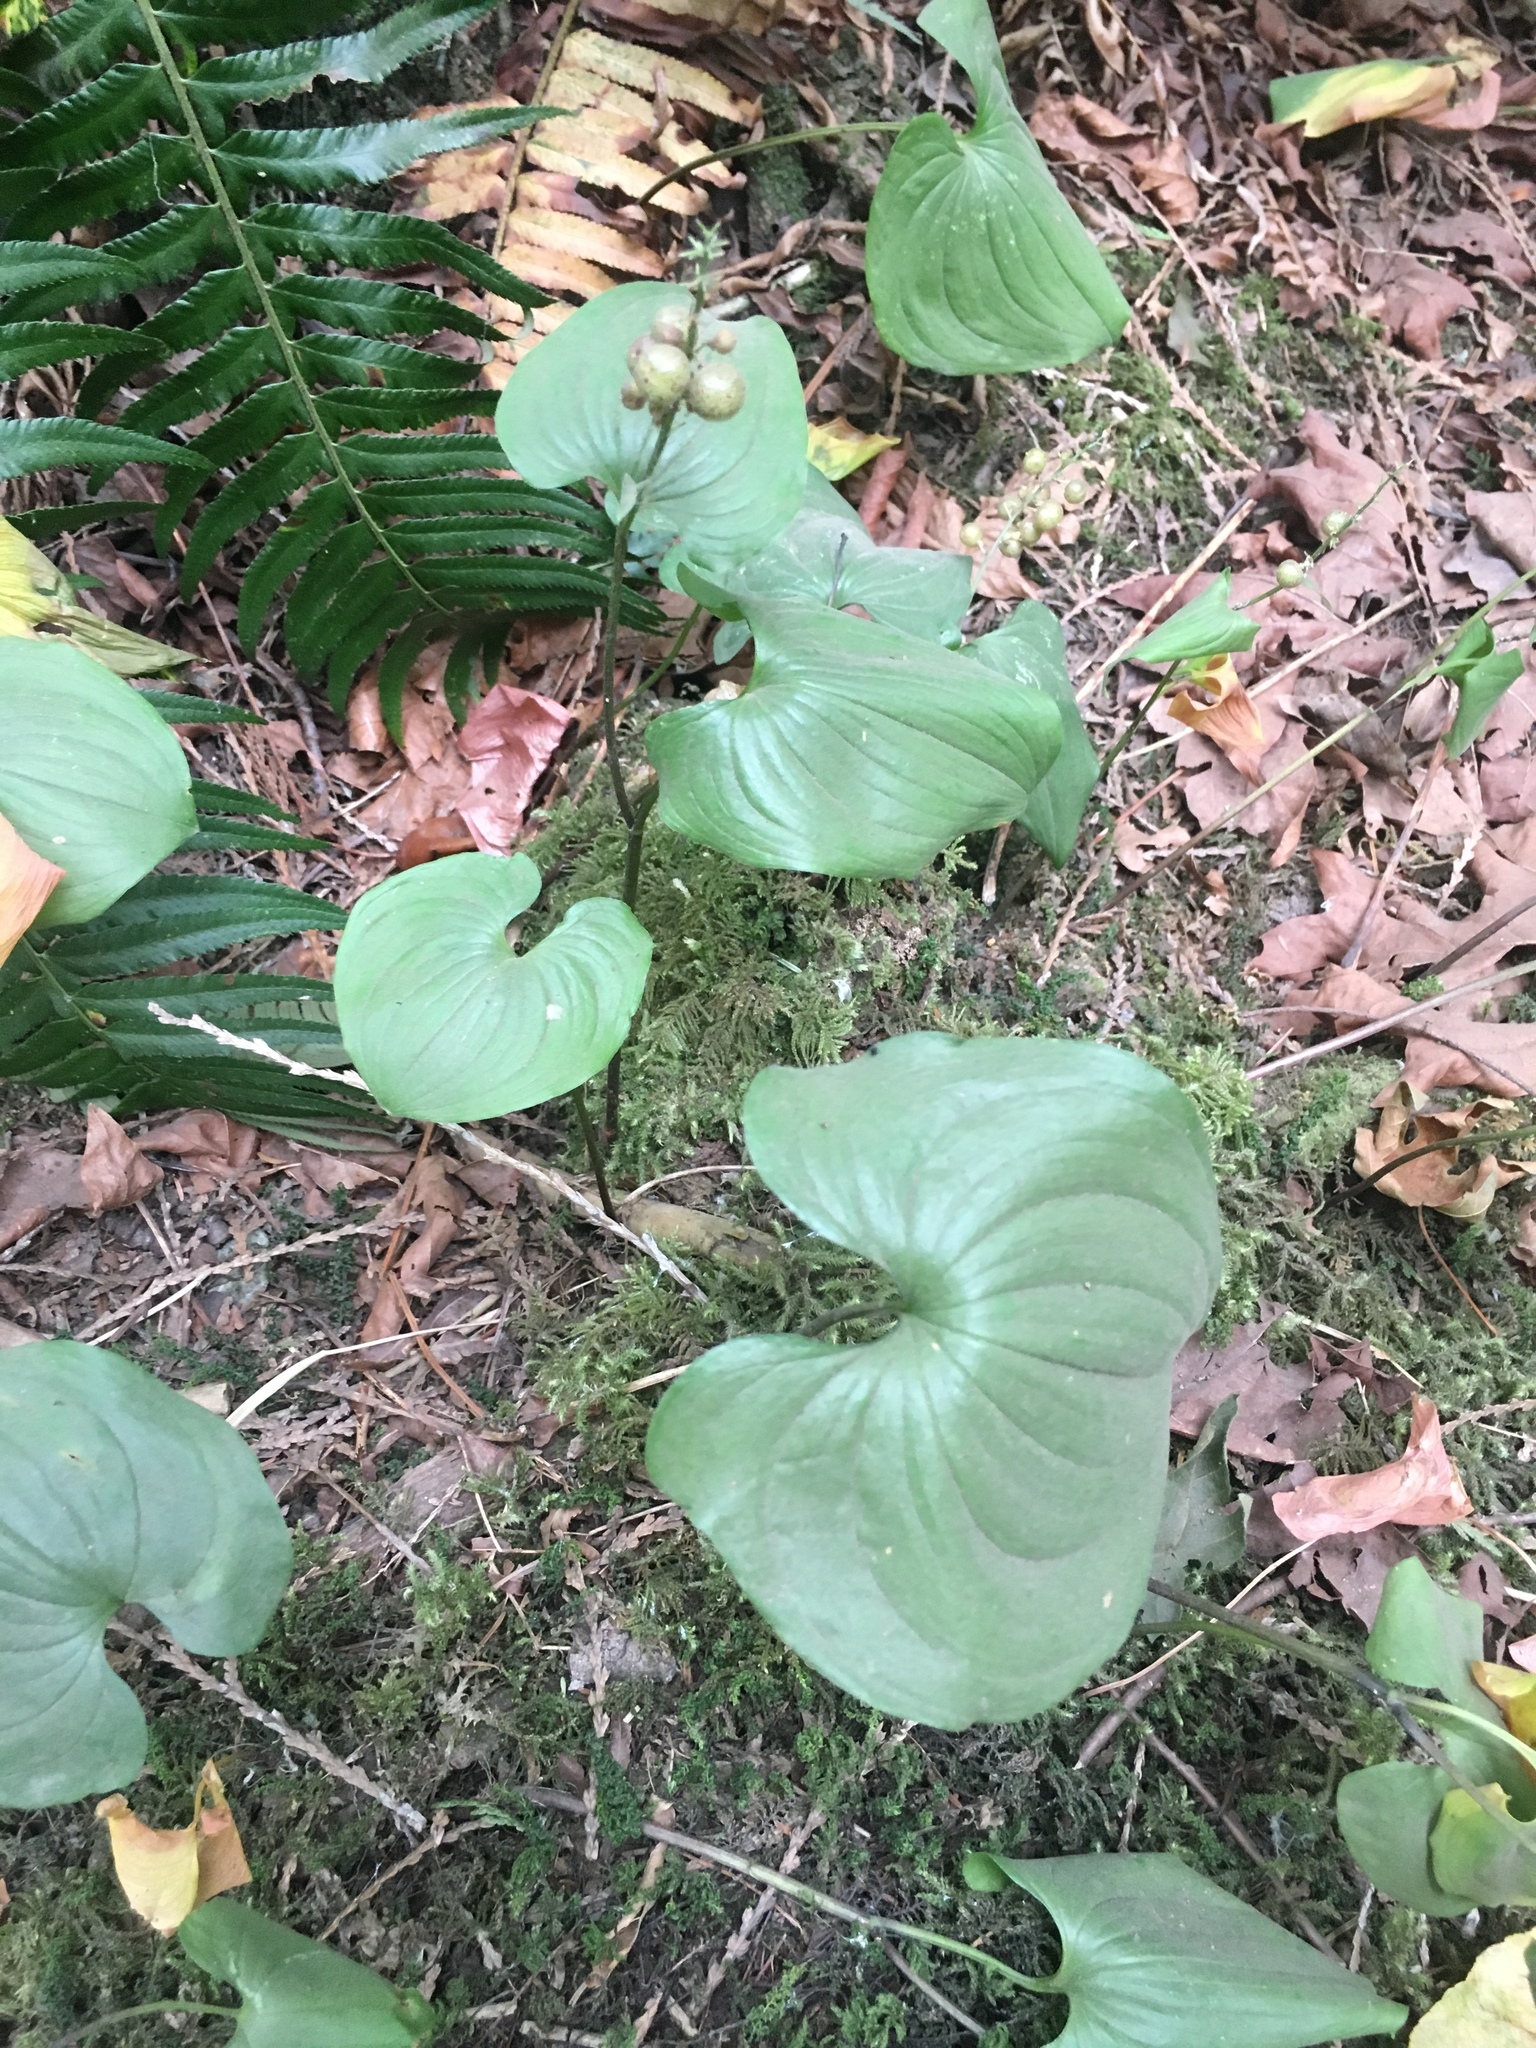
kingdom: Plantae
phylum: Tracheophyta
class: Liliopsida
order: Asparagales
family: Asparagaceae
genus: Maianthemum
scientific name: Maianthemum dilatatum
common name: False lily-of-the-valley
